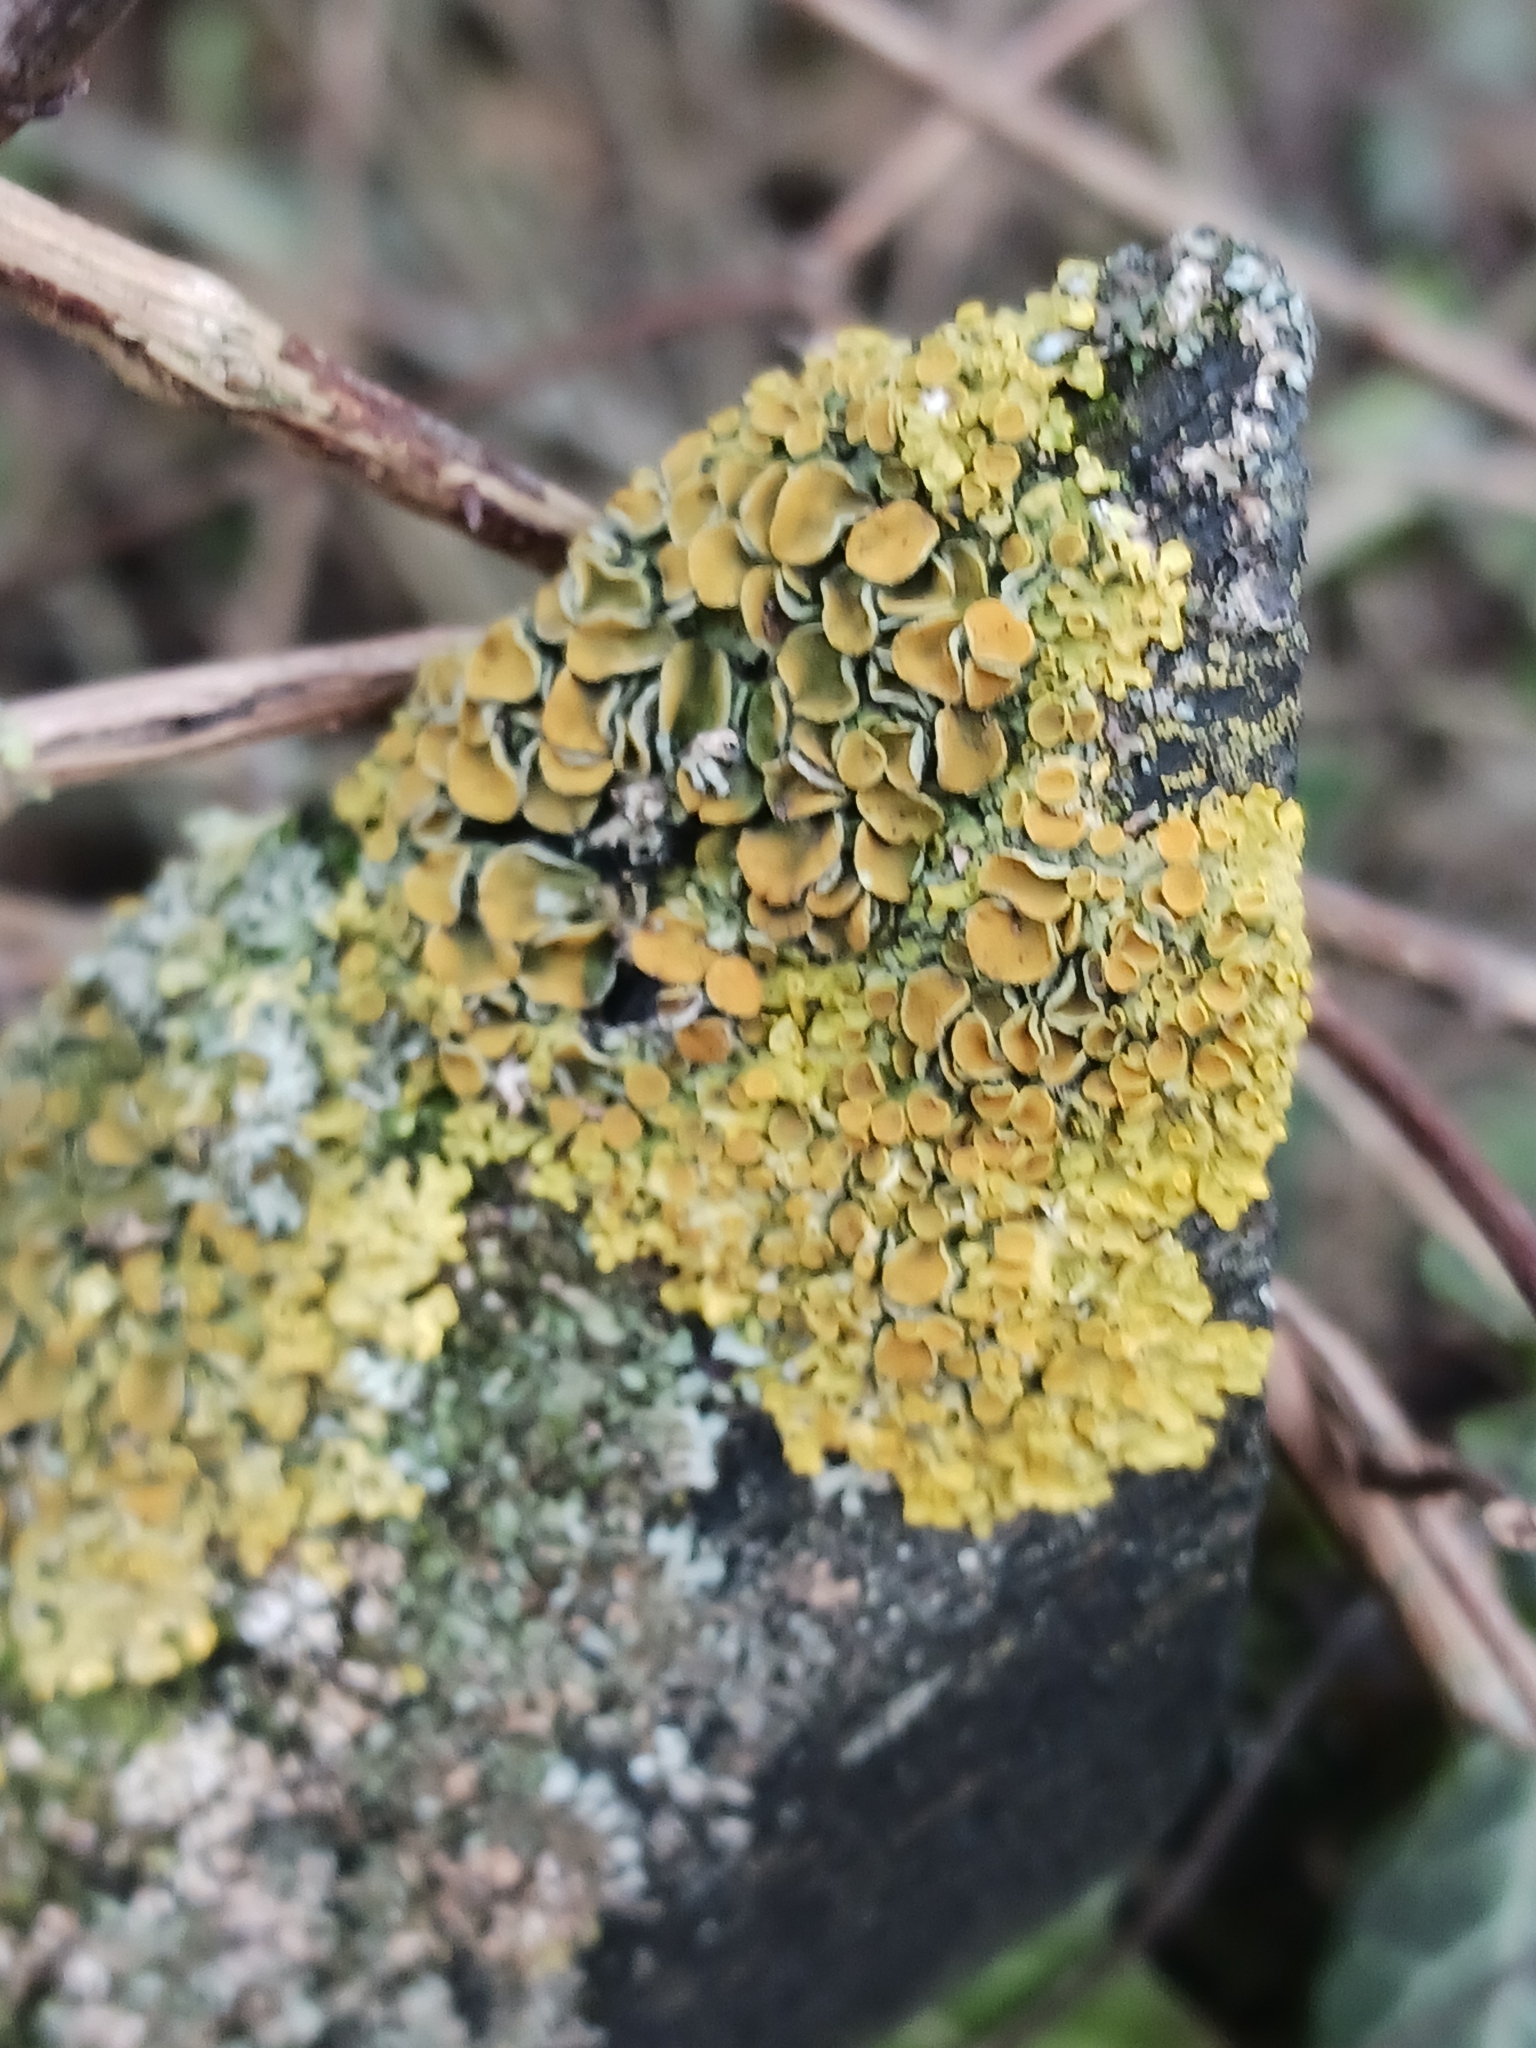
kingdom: Fungi
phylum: Ascomycota
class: Lecanoromycetes
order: Teloschistales
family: Teloschistaceae
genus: Xanthoria
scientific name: Xanthoria parietina
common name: Common orange lichen
